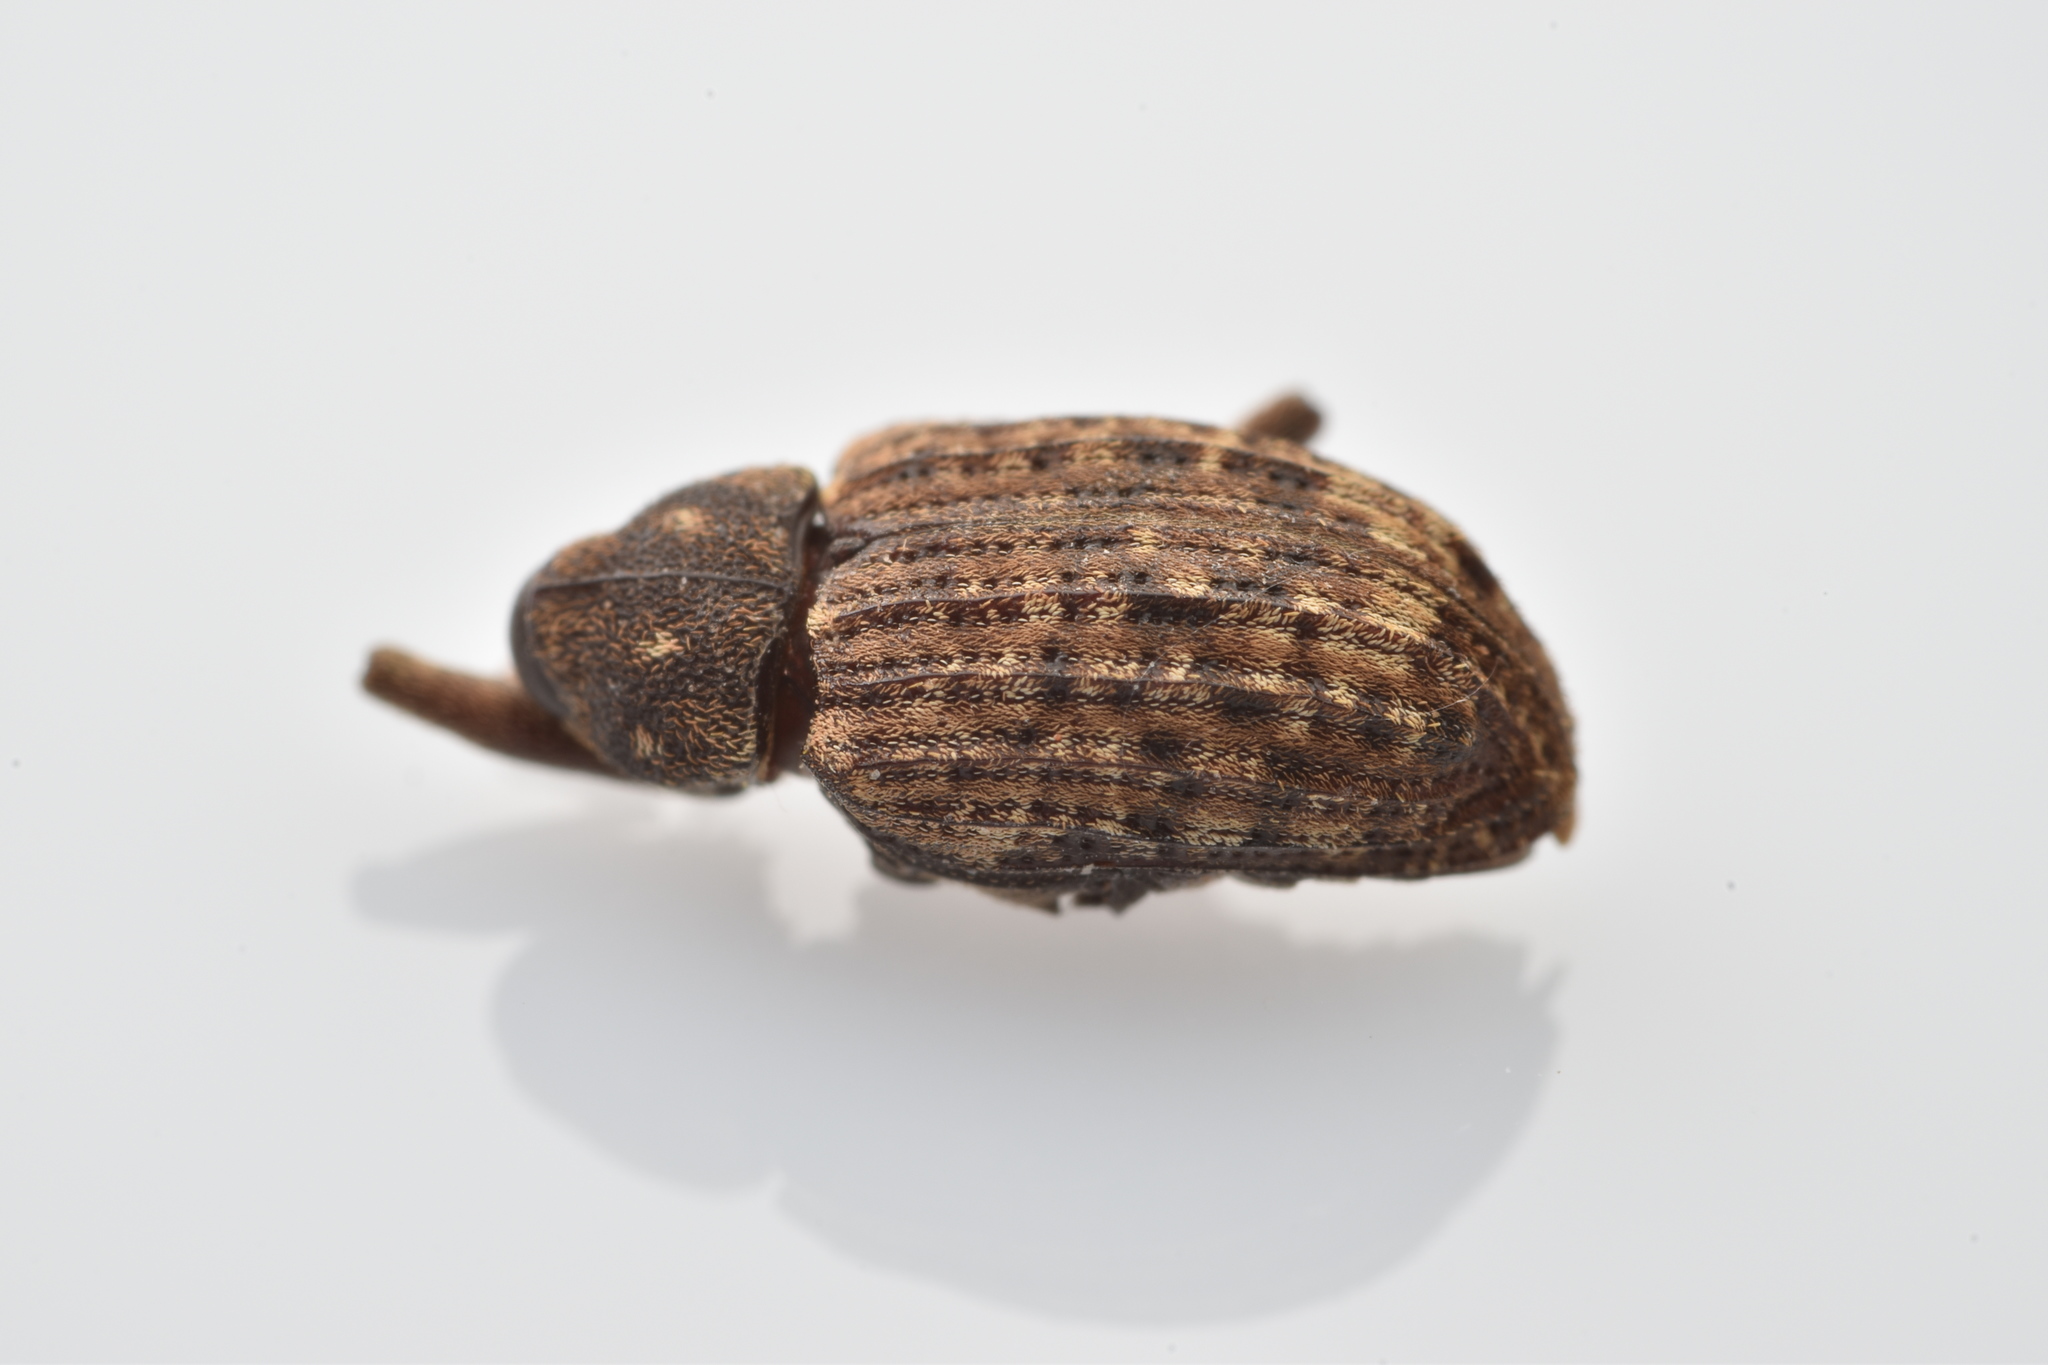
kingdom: Animalia
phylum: Arthropoda
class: Insecta
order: Coleoptera
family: Curculionidae
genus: Conotrachelus
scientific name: Conotrachelus naso
